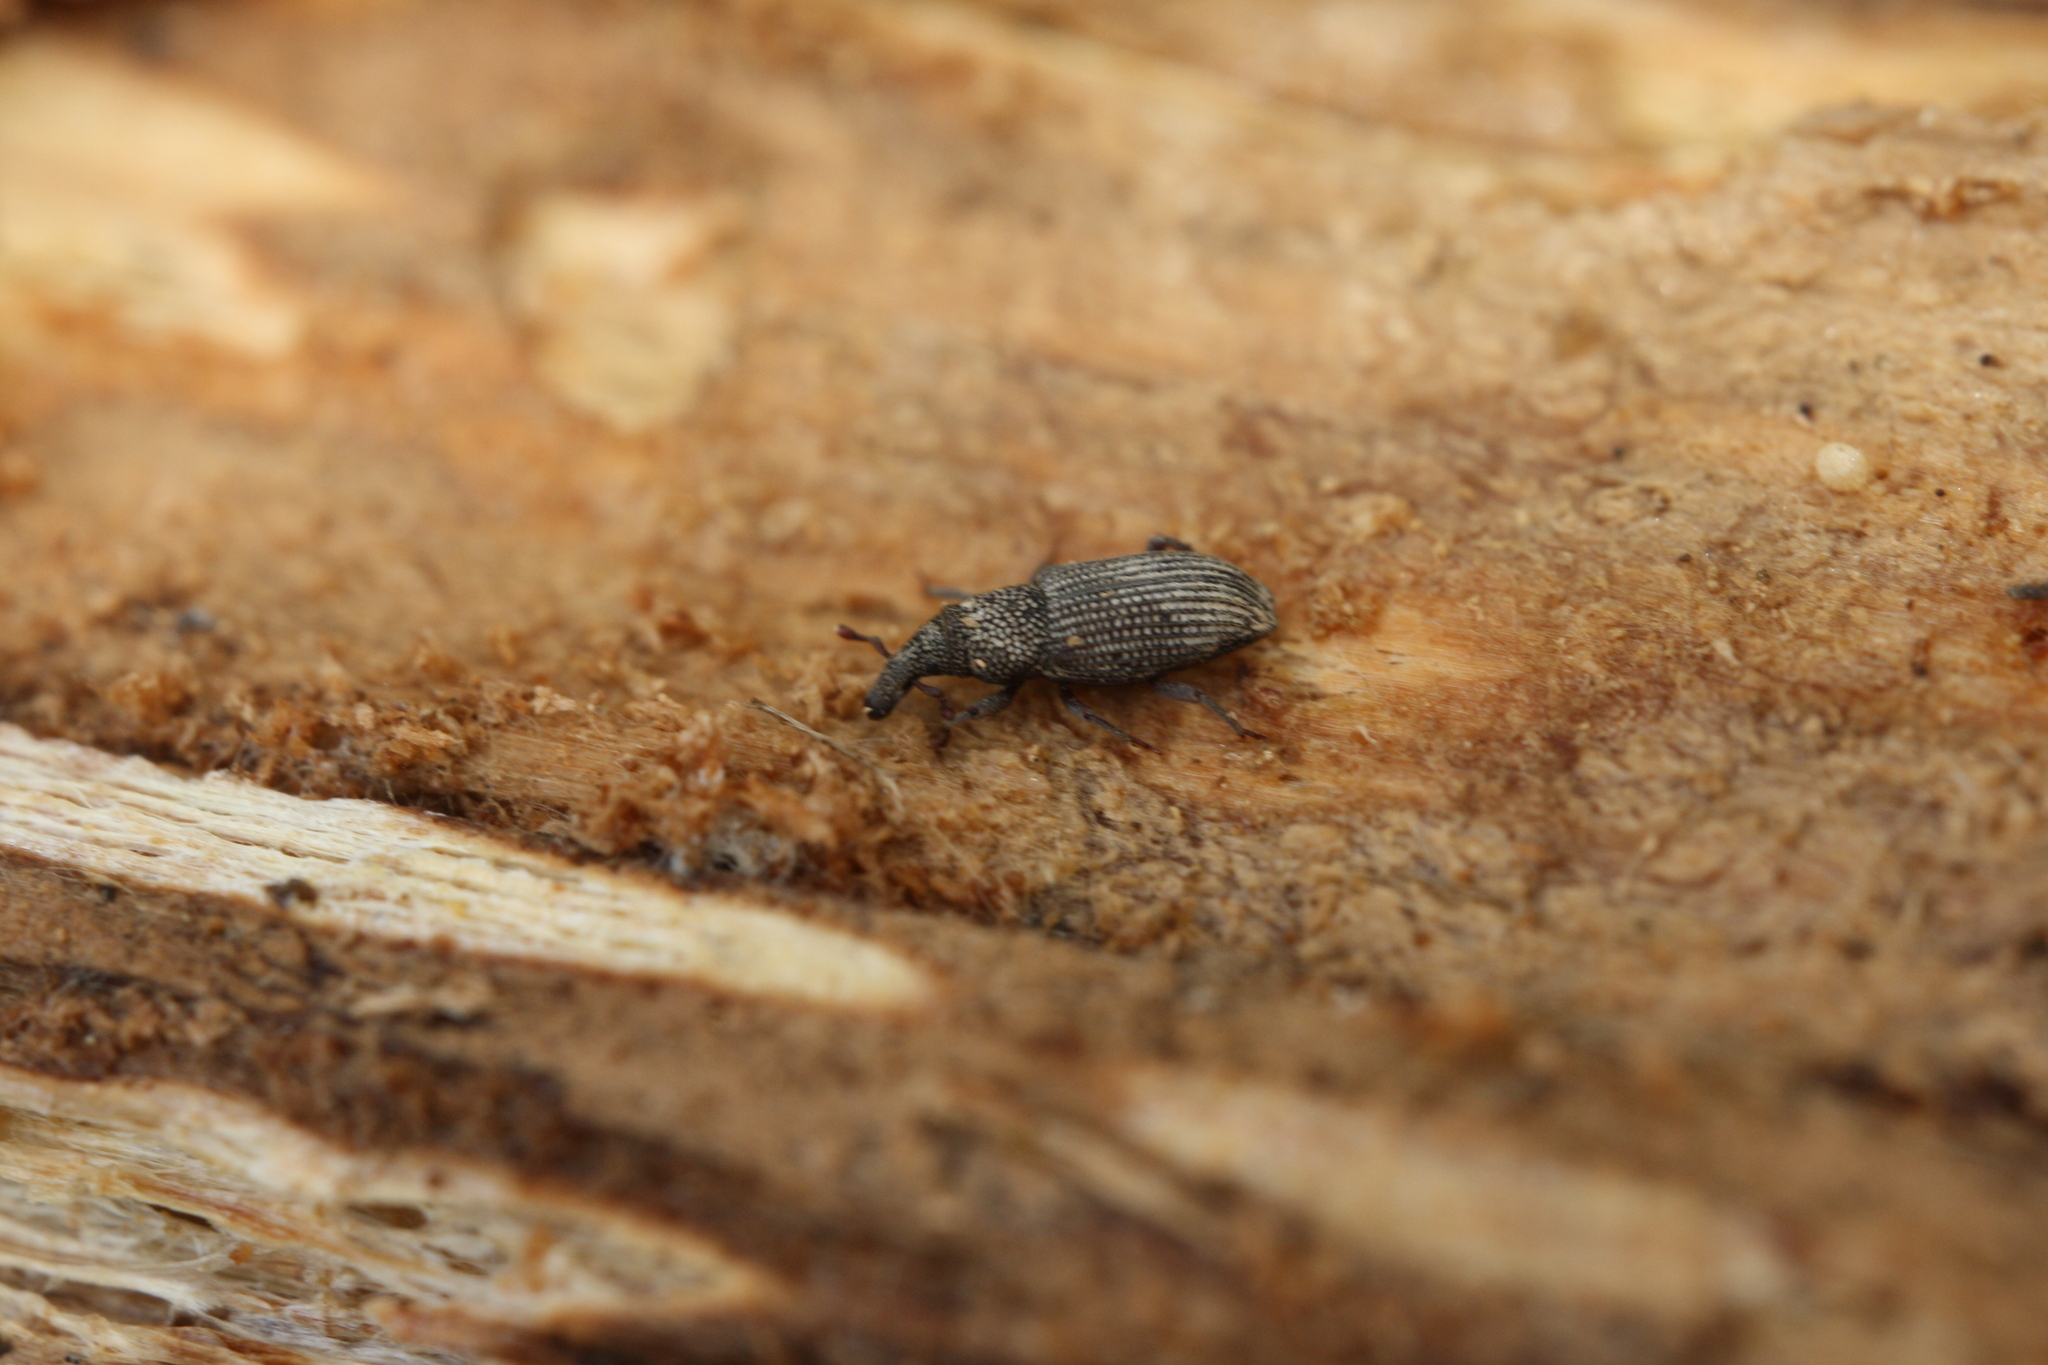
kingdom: Animalia
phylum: Arthropoda
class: Insecta
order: Coleoptera
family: Dryophthoridae
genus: Dryophthorus
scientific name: Dryophthorus corticalis
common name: Wood-boring weevil
